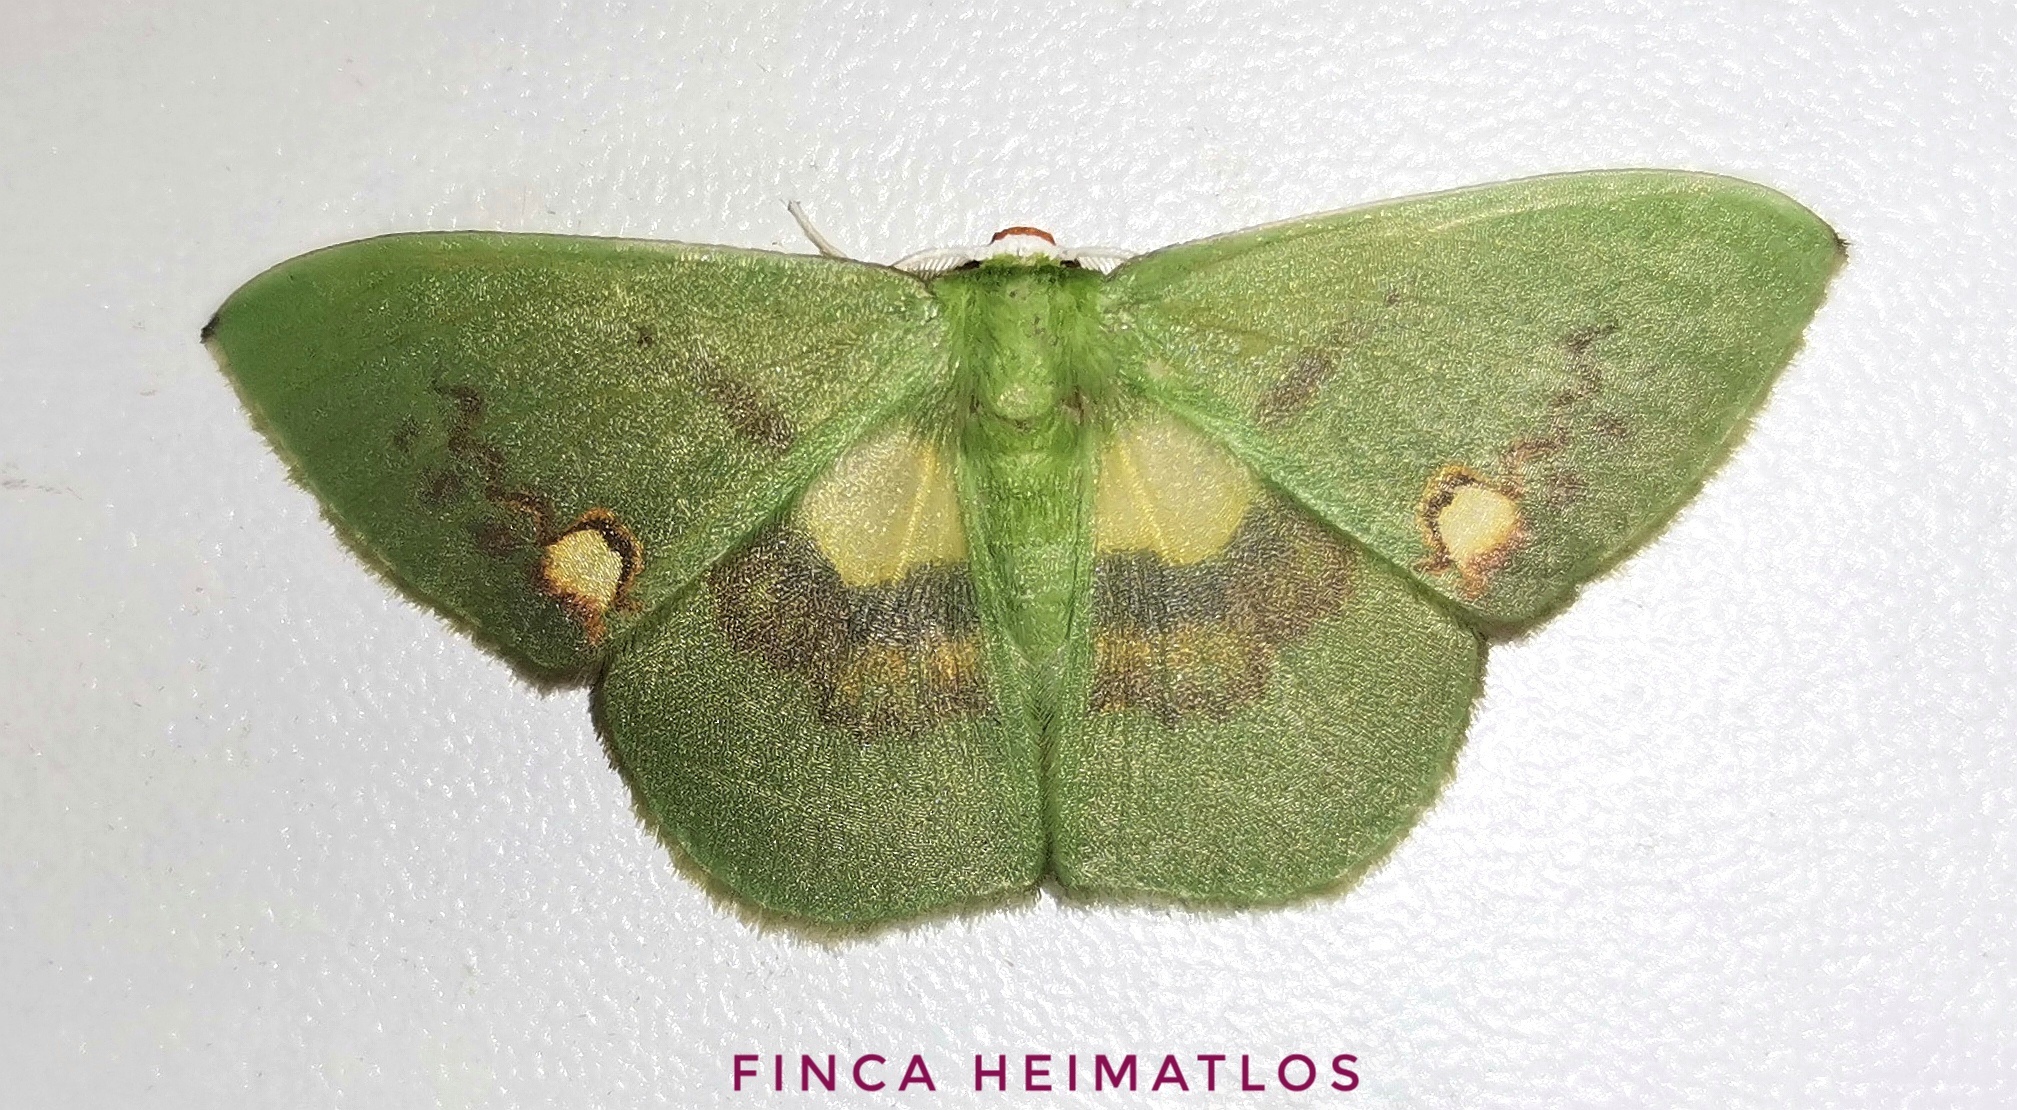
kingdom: Animalia
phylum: Arthropoda
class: Insecta
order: Lepidoptera
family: Geometridae
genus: Rhodochlora
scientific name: Rhodochlora brunneipalpis
